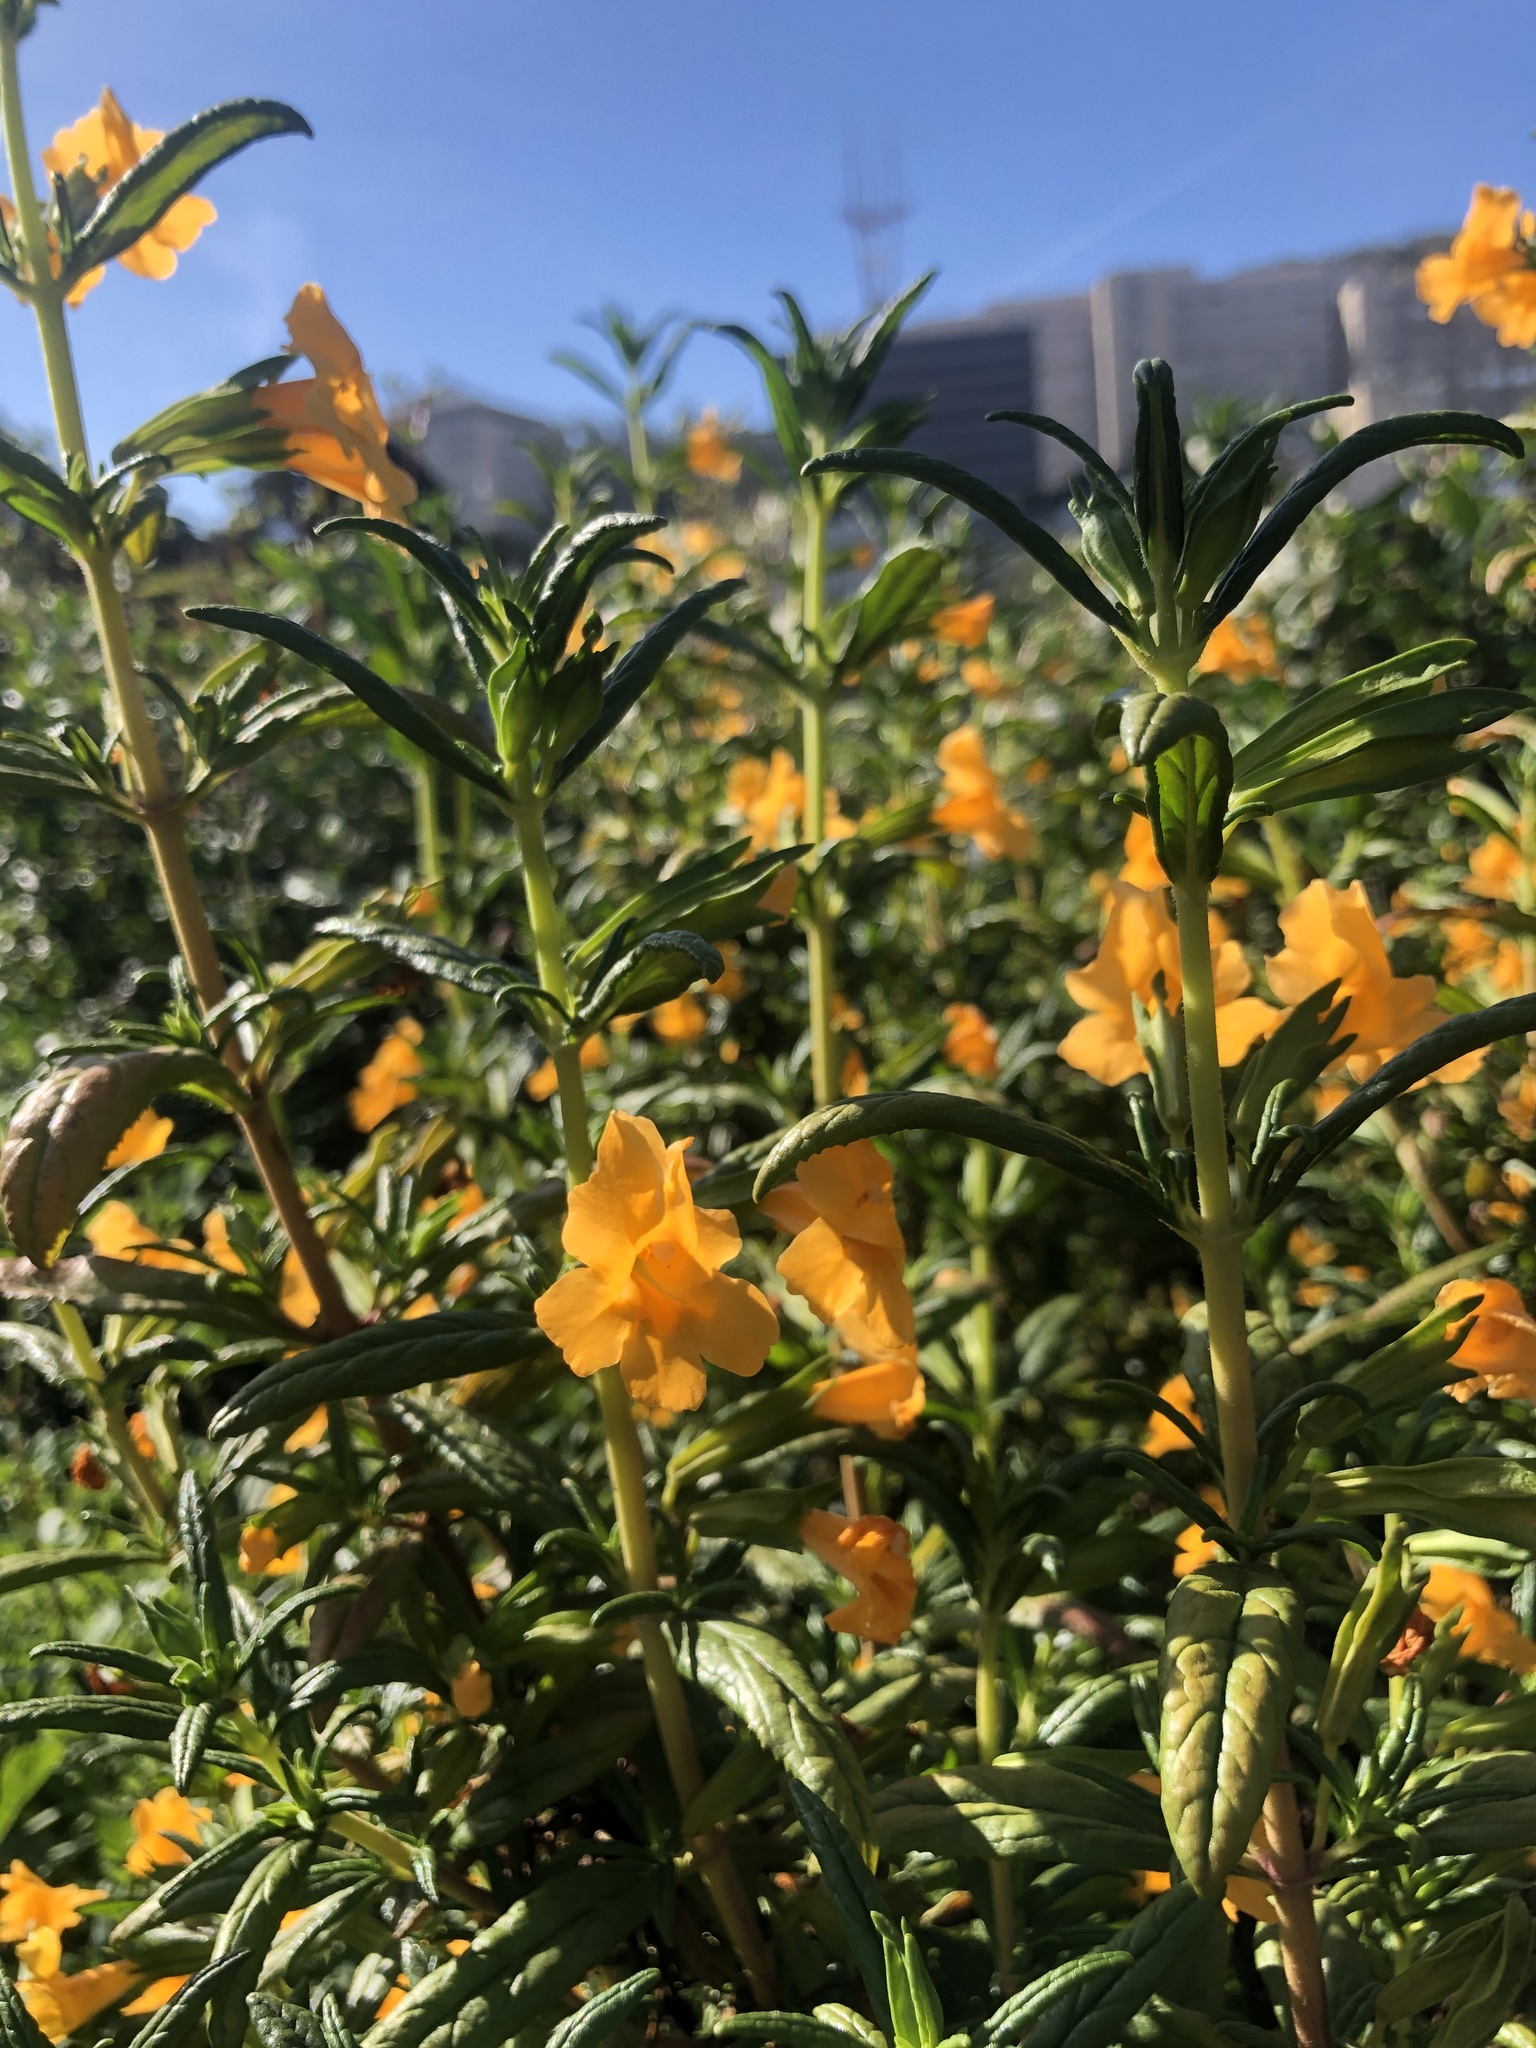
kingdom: Plantae
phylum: Tracheophyta
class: Magnoliopsida
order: Lamiales
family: Phrymaceae
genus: Diplacus
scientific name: Diplacus aurantiacus
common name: Bush monkey-flower
